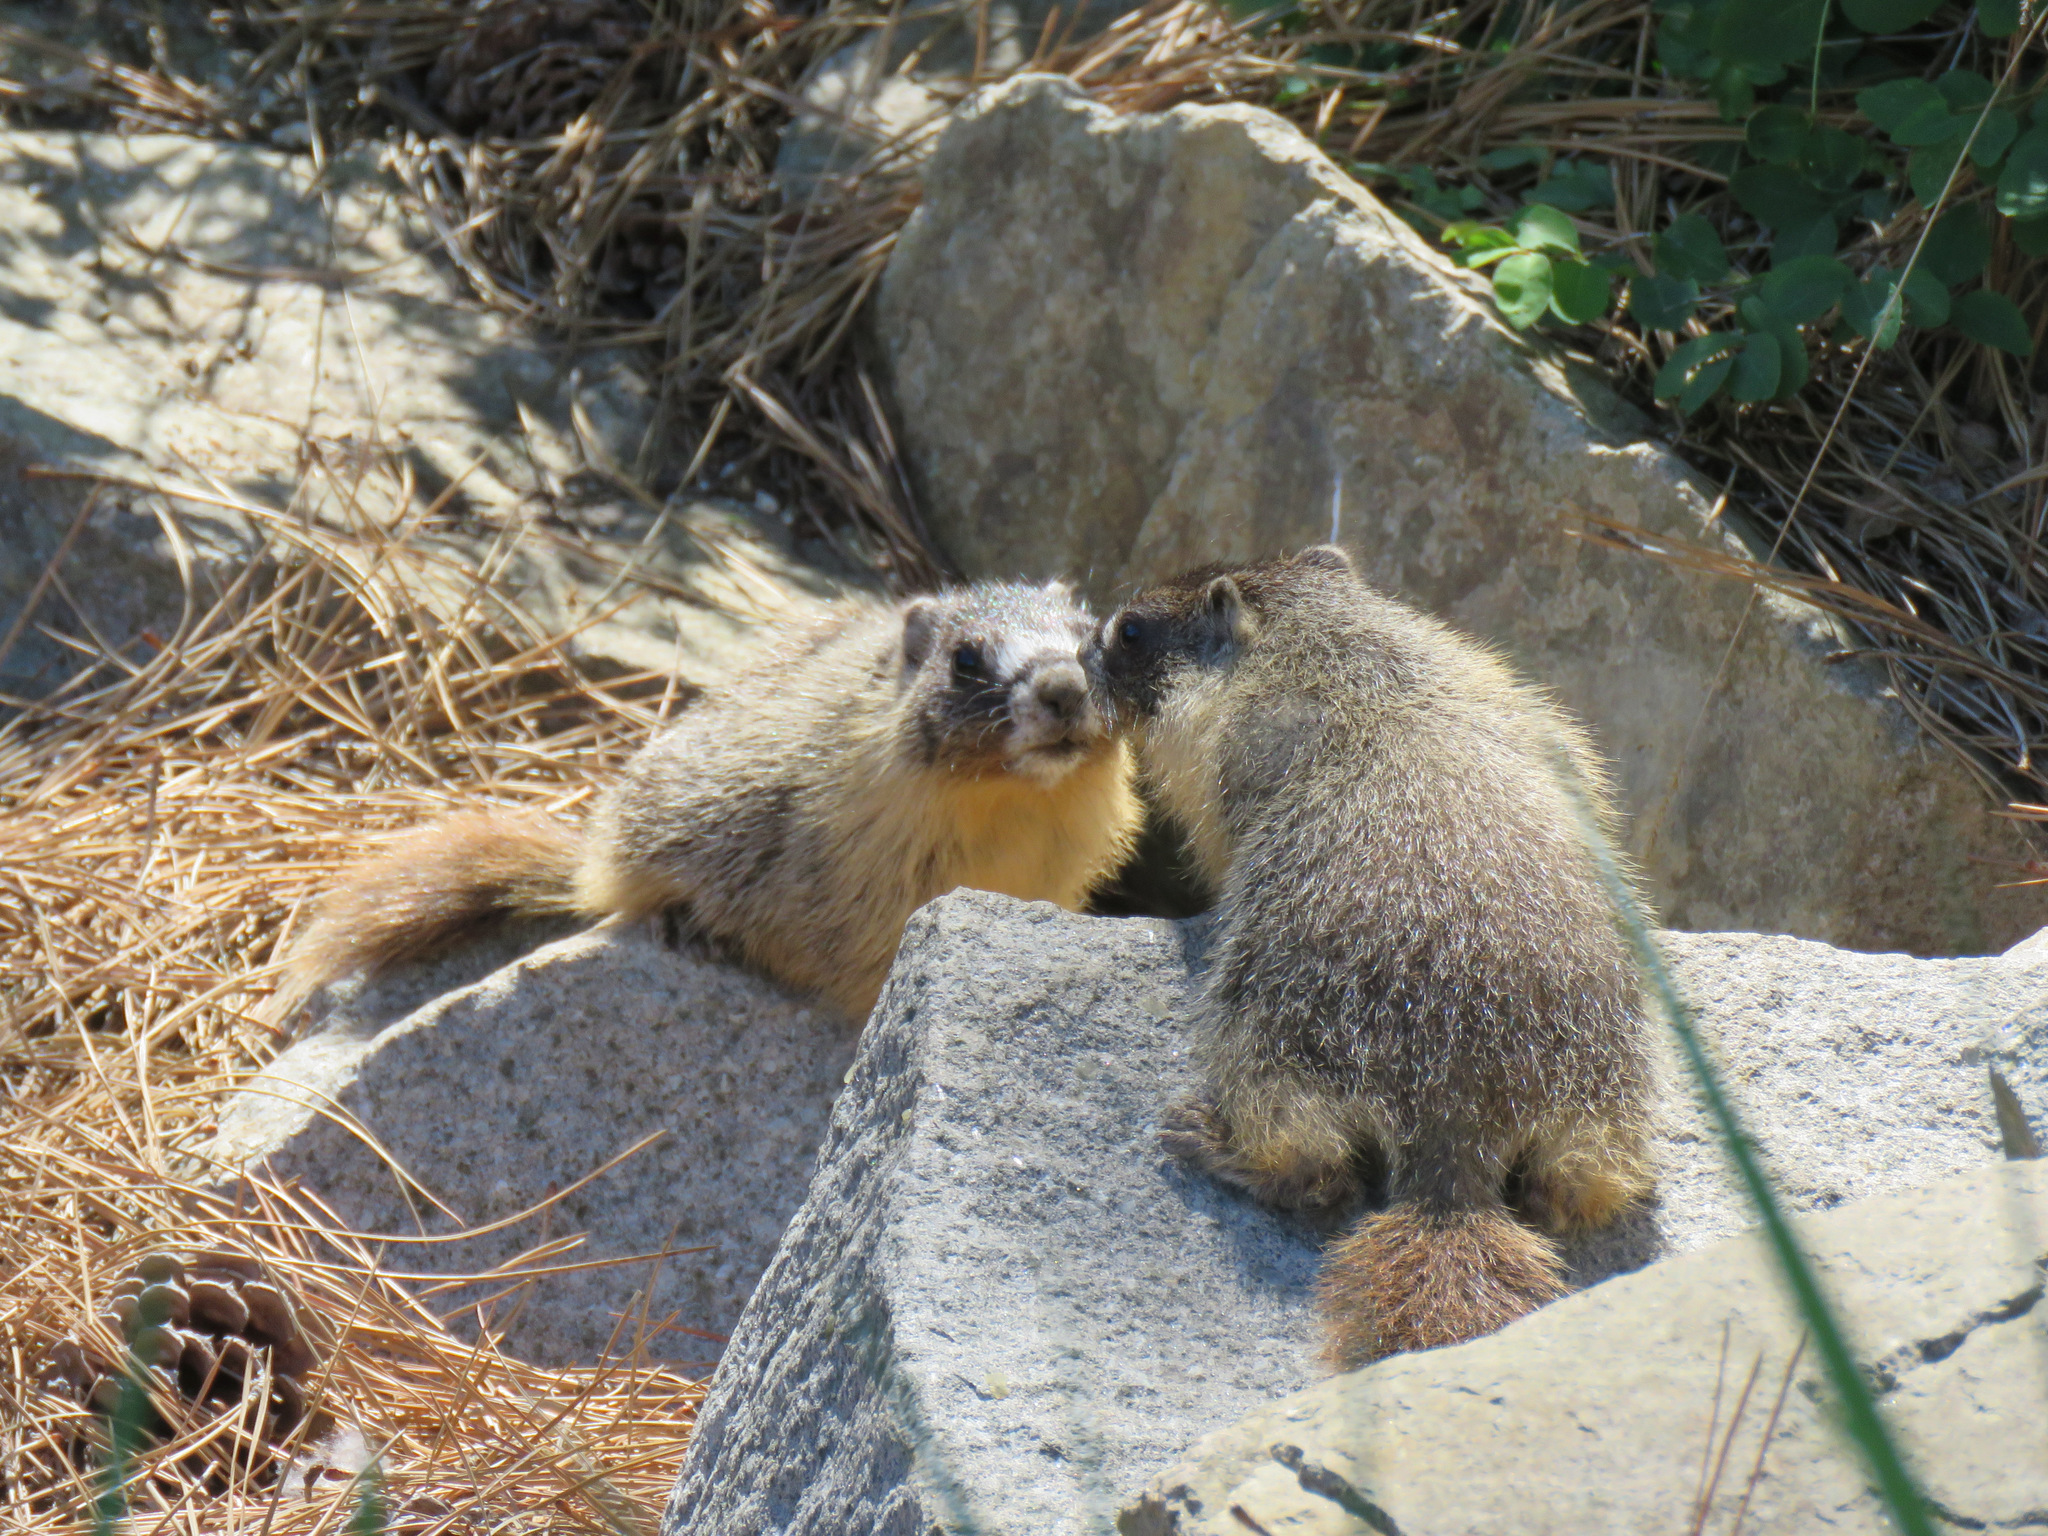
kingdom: Animalia
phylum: Chordata
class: Mammalia
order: Rodentia
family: Sciuridae
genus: Marmota
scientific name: Marmota flaviventris
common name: Yellow-bellied marmot
